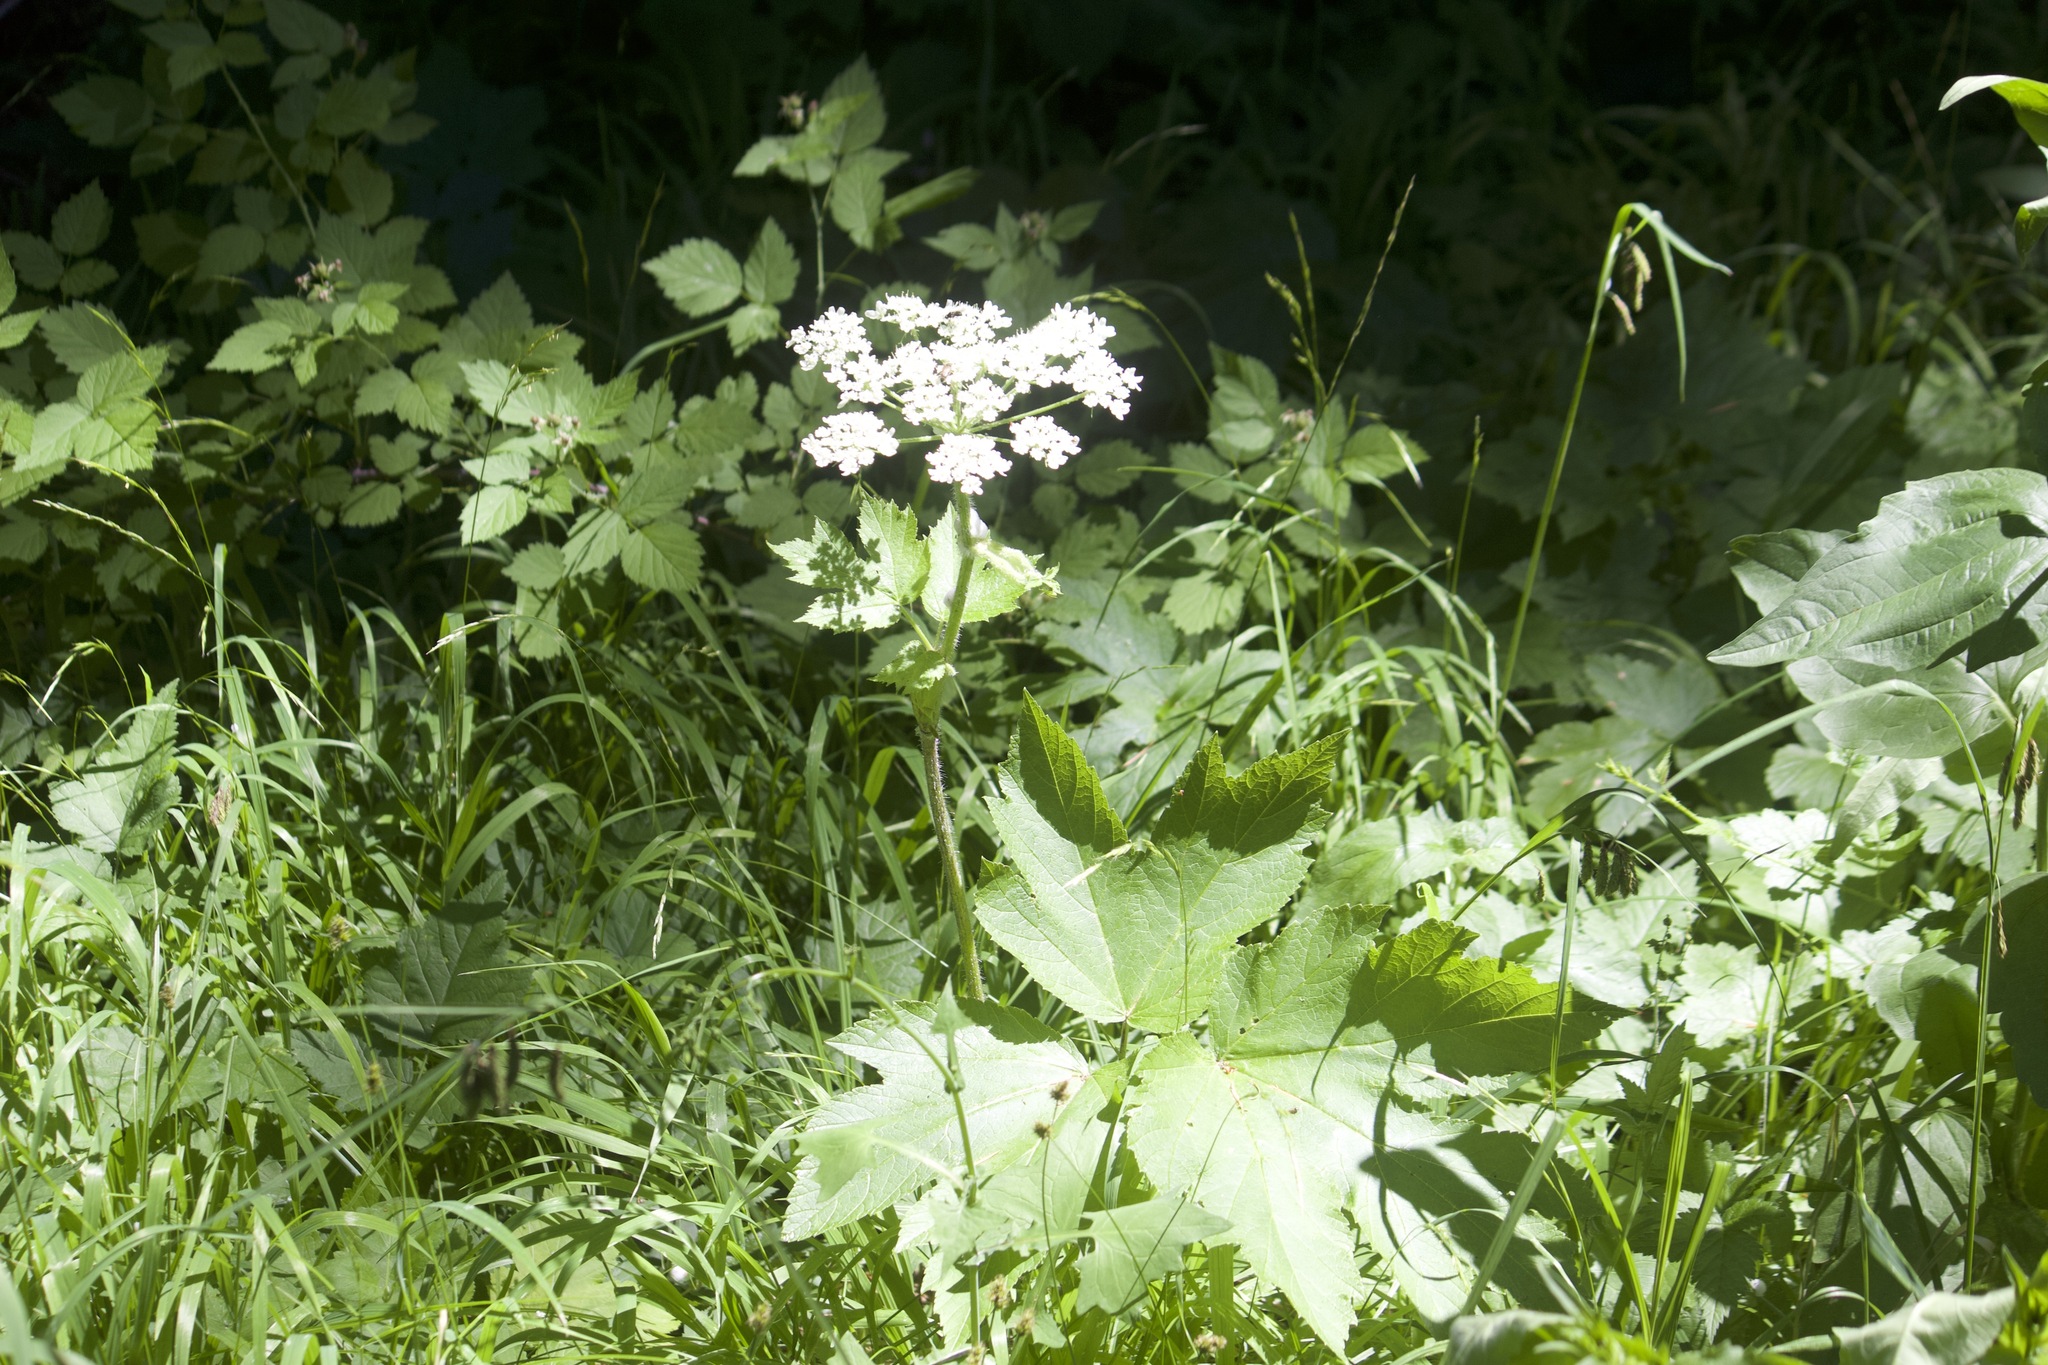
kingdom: Plantae
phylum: Tracheophyta
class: Magnoliopsida
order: Apiales
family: Apiaceae
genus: Heracleum
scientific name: Heracleum maximum
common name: American cow parsnip
